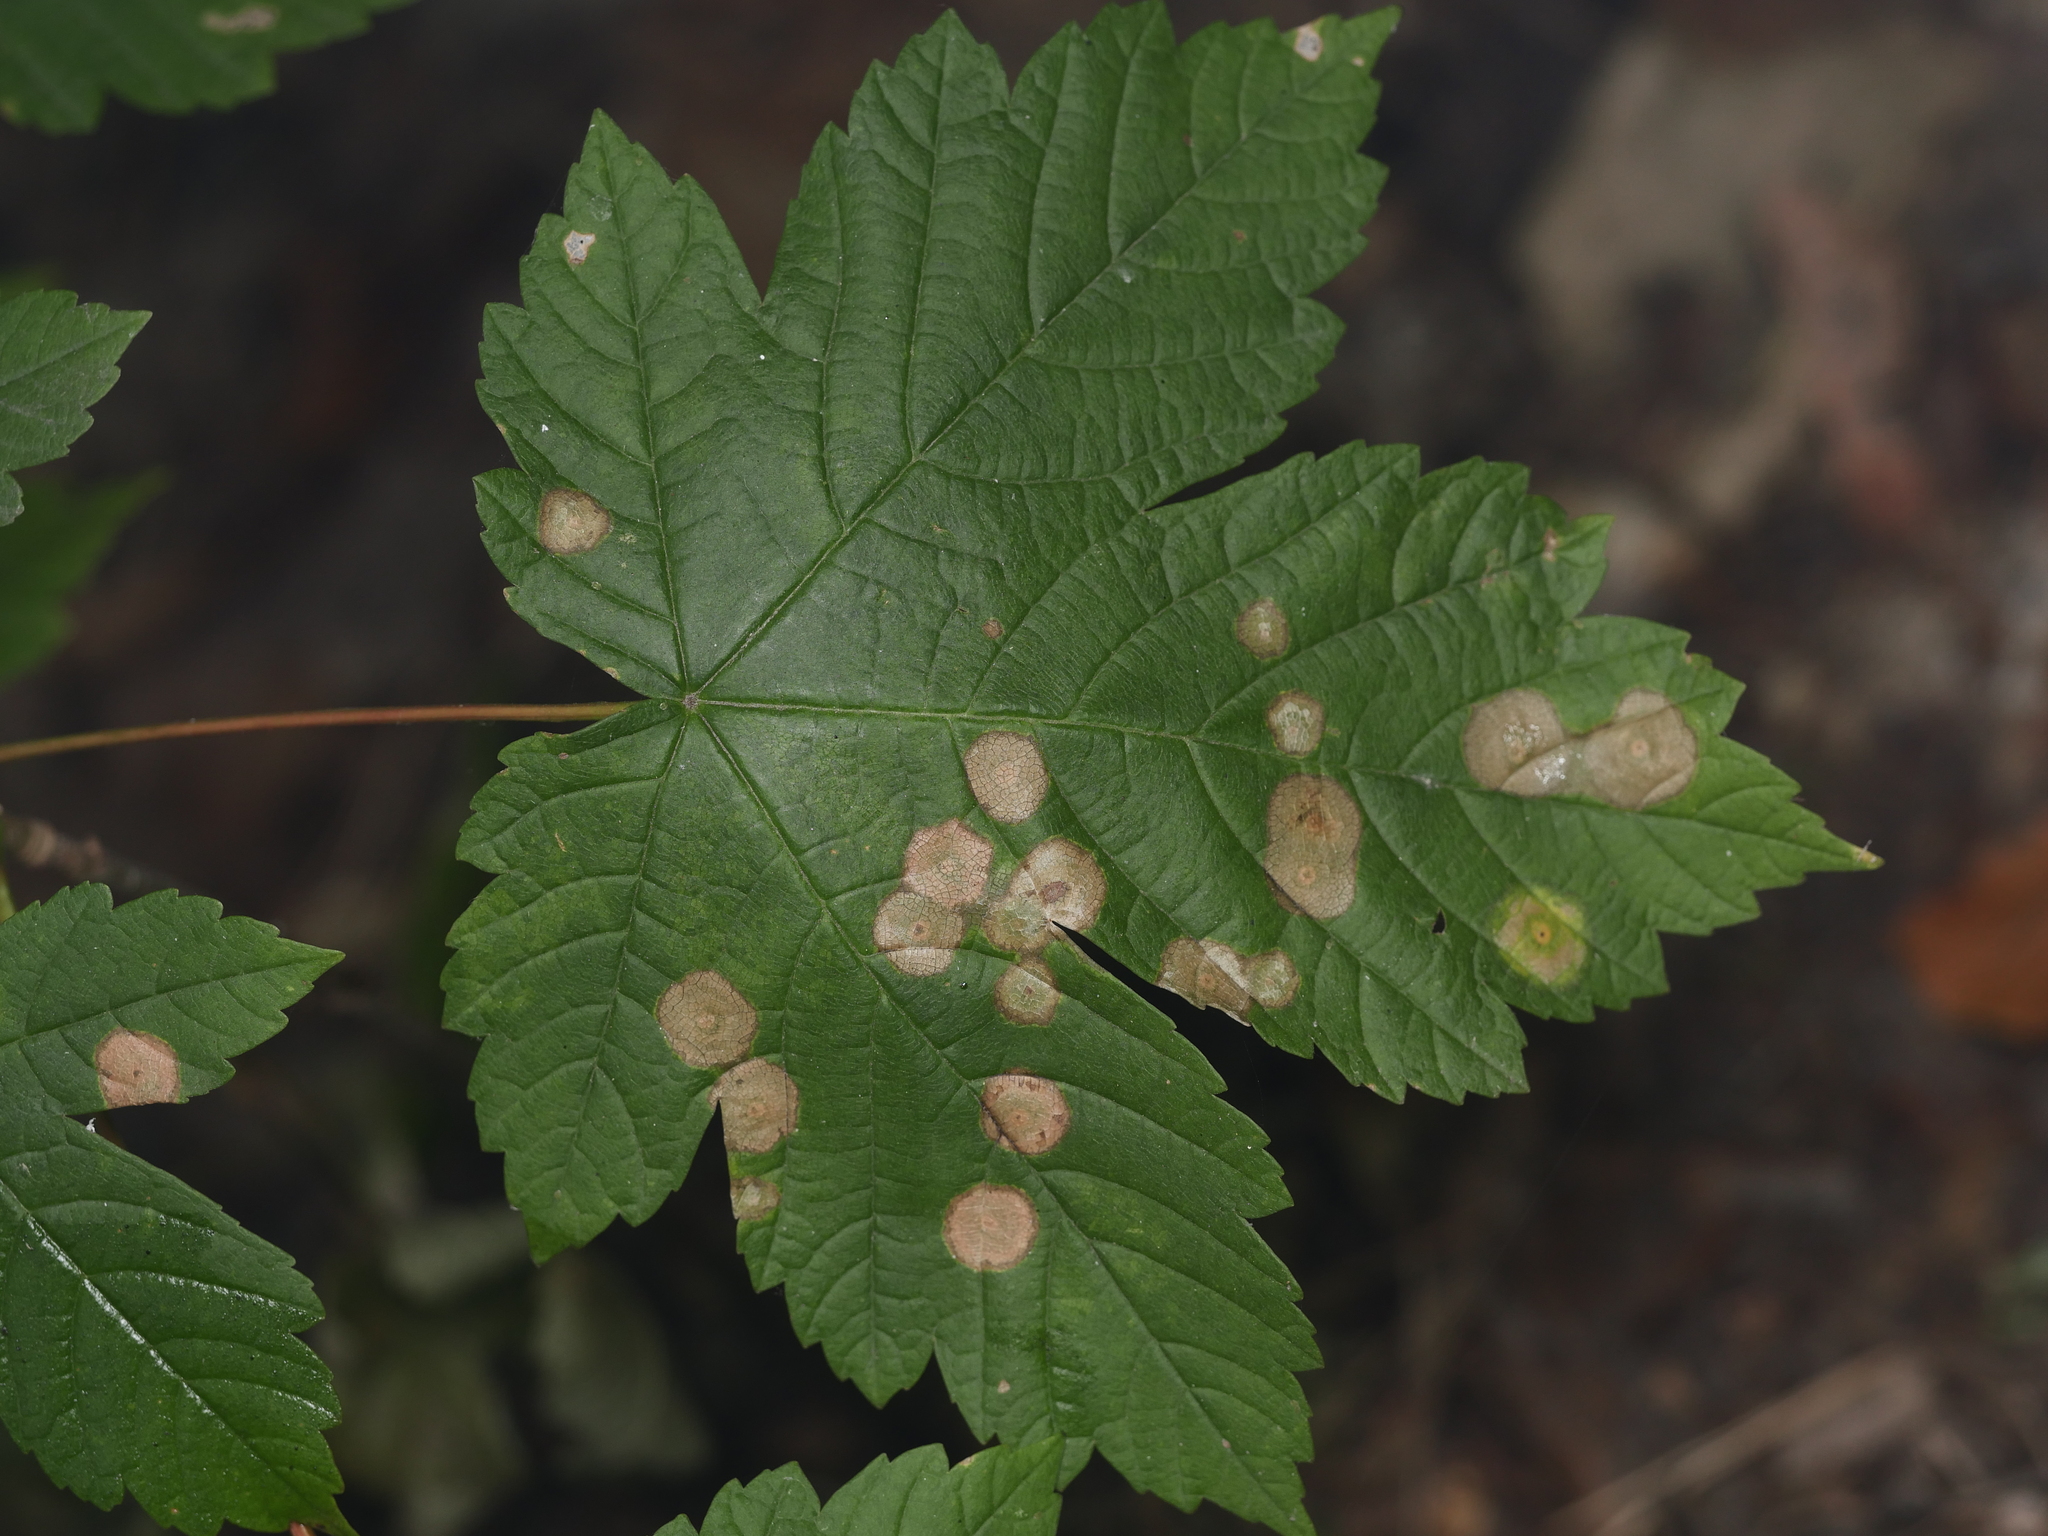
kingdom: Plantae
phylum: Tracheophyta
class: Magnoliopsida
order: Sapindales
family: Sapindaceae
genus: Acer
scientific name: Acer pseudoplatanus
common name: Sycamore
